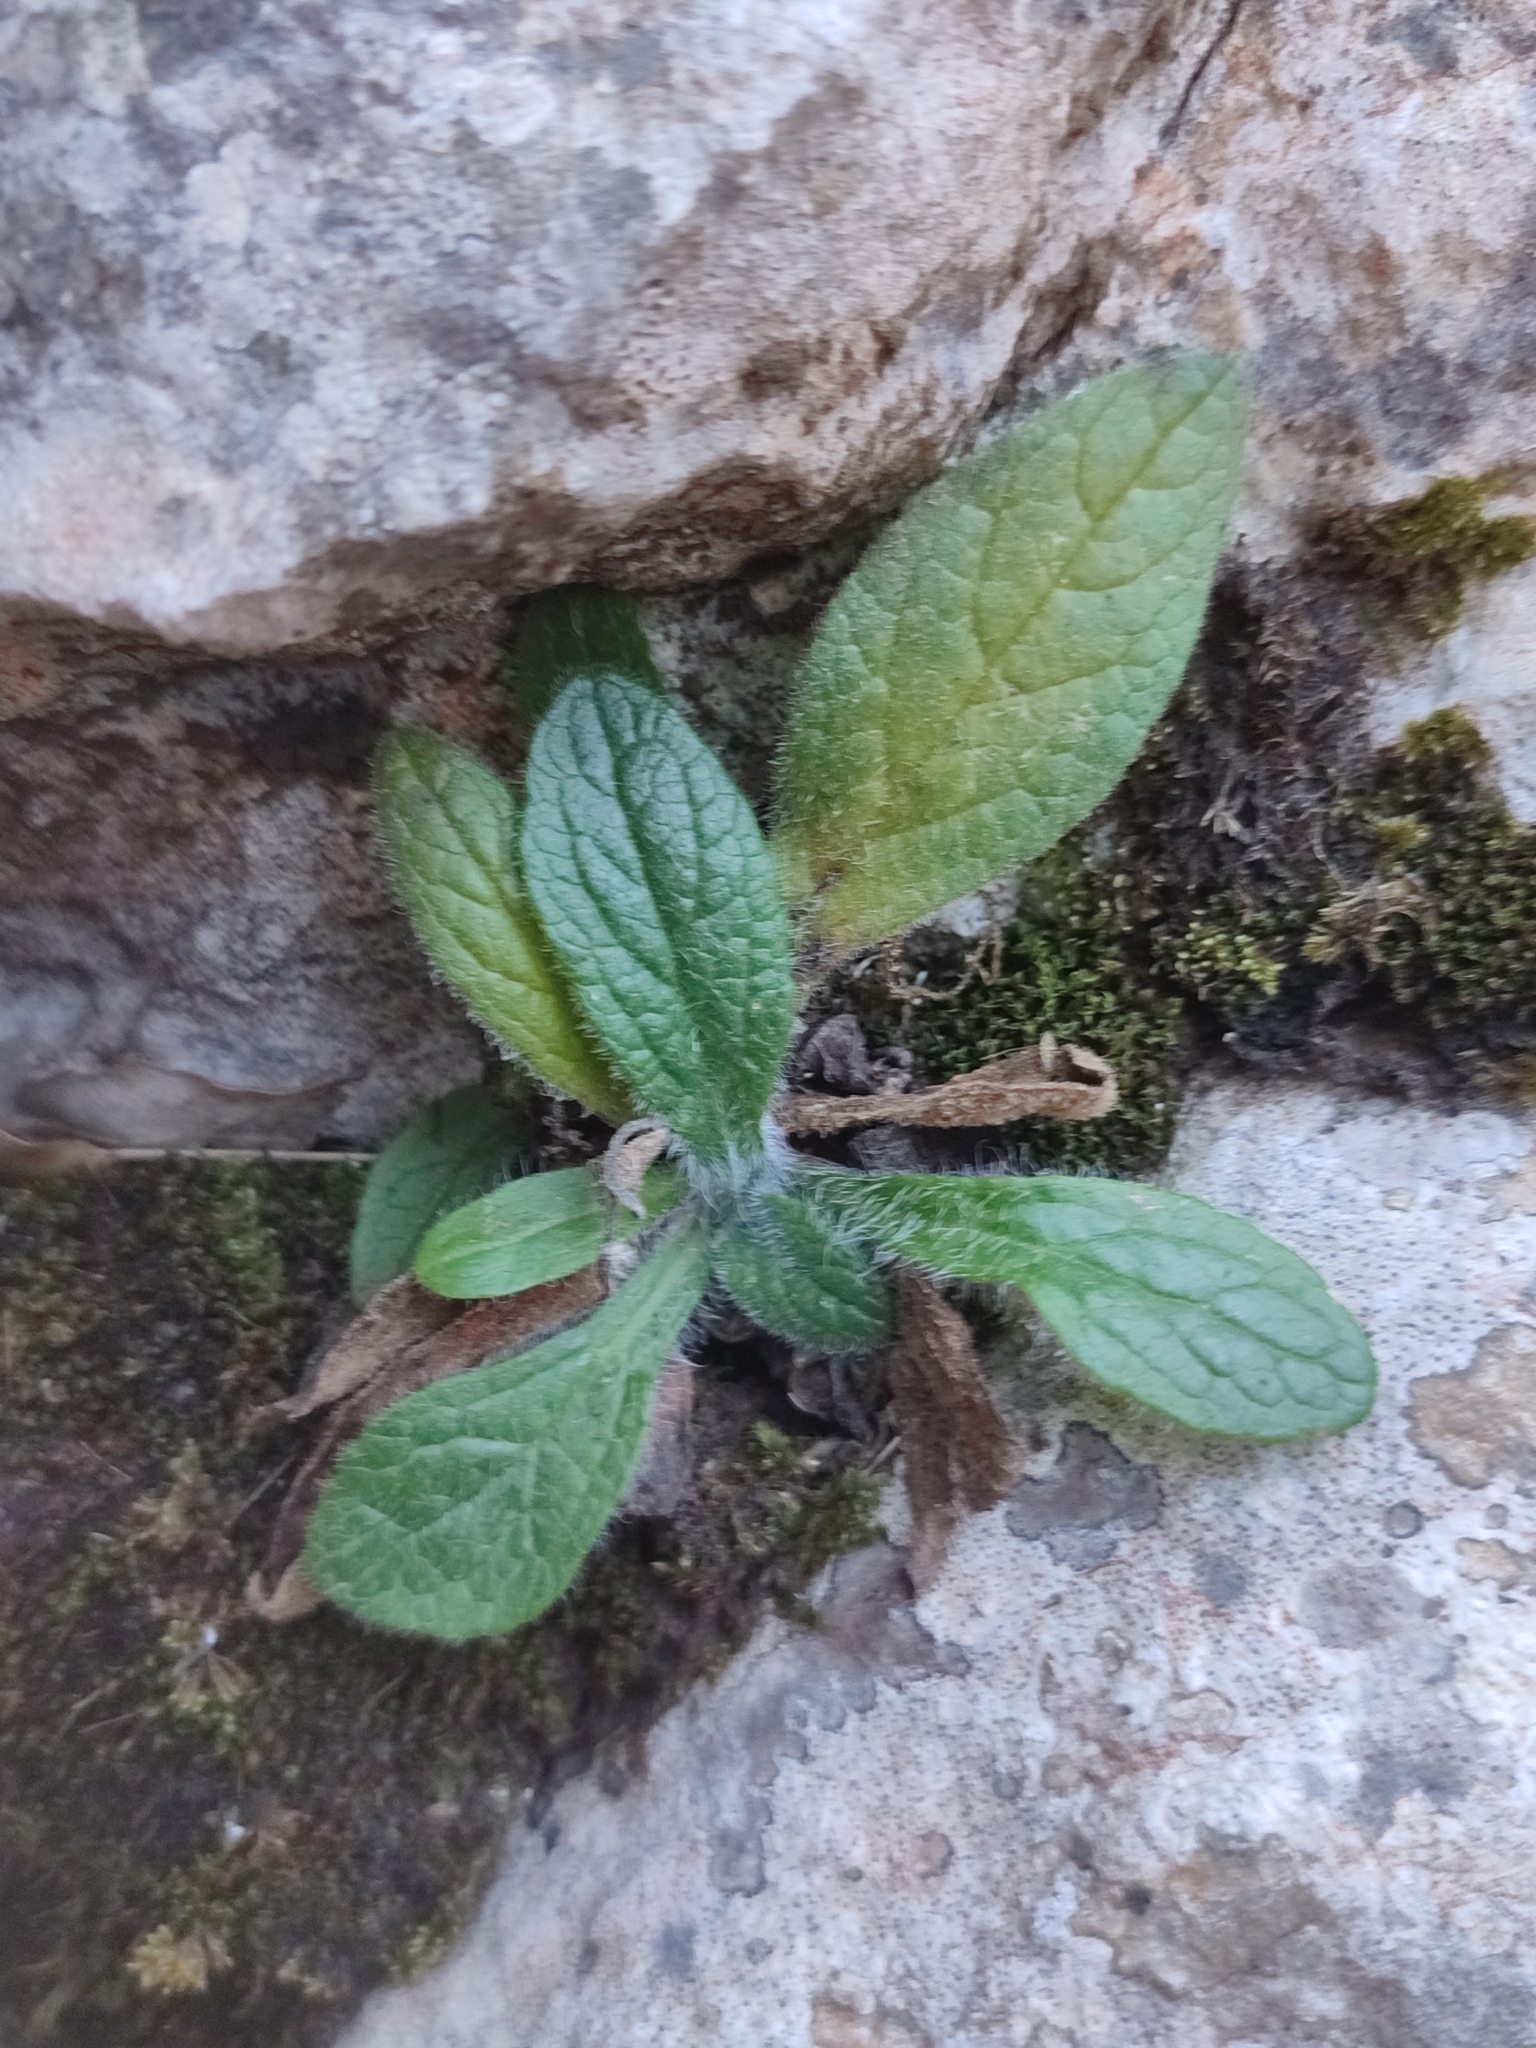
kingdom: Plantae
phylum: Tracheophyta
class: Magnoliopsida
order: Lamiales
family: Plantaginaceae
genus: Digitalis
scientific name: Digitalis minor
